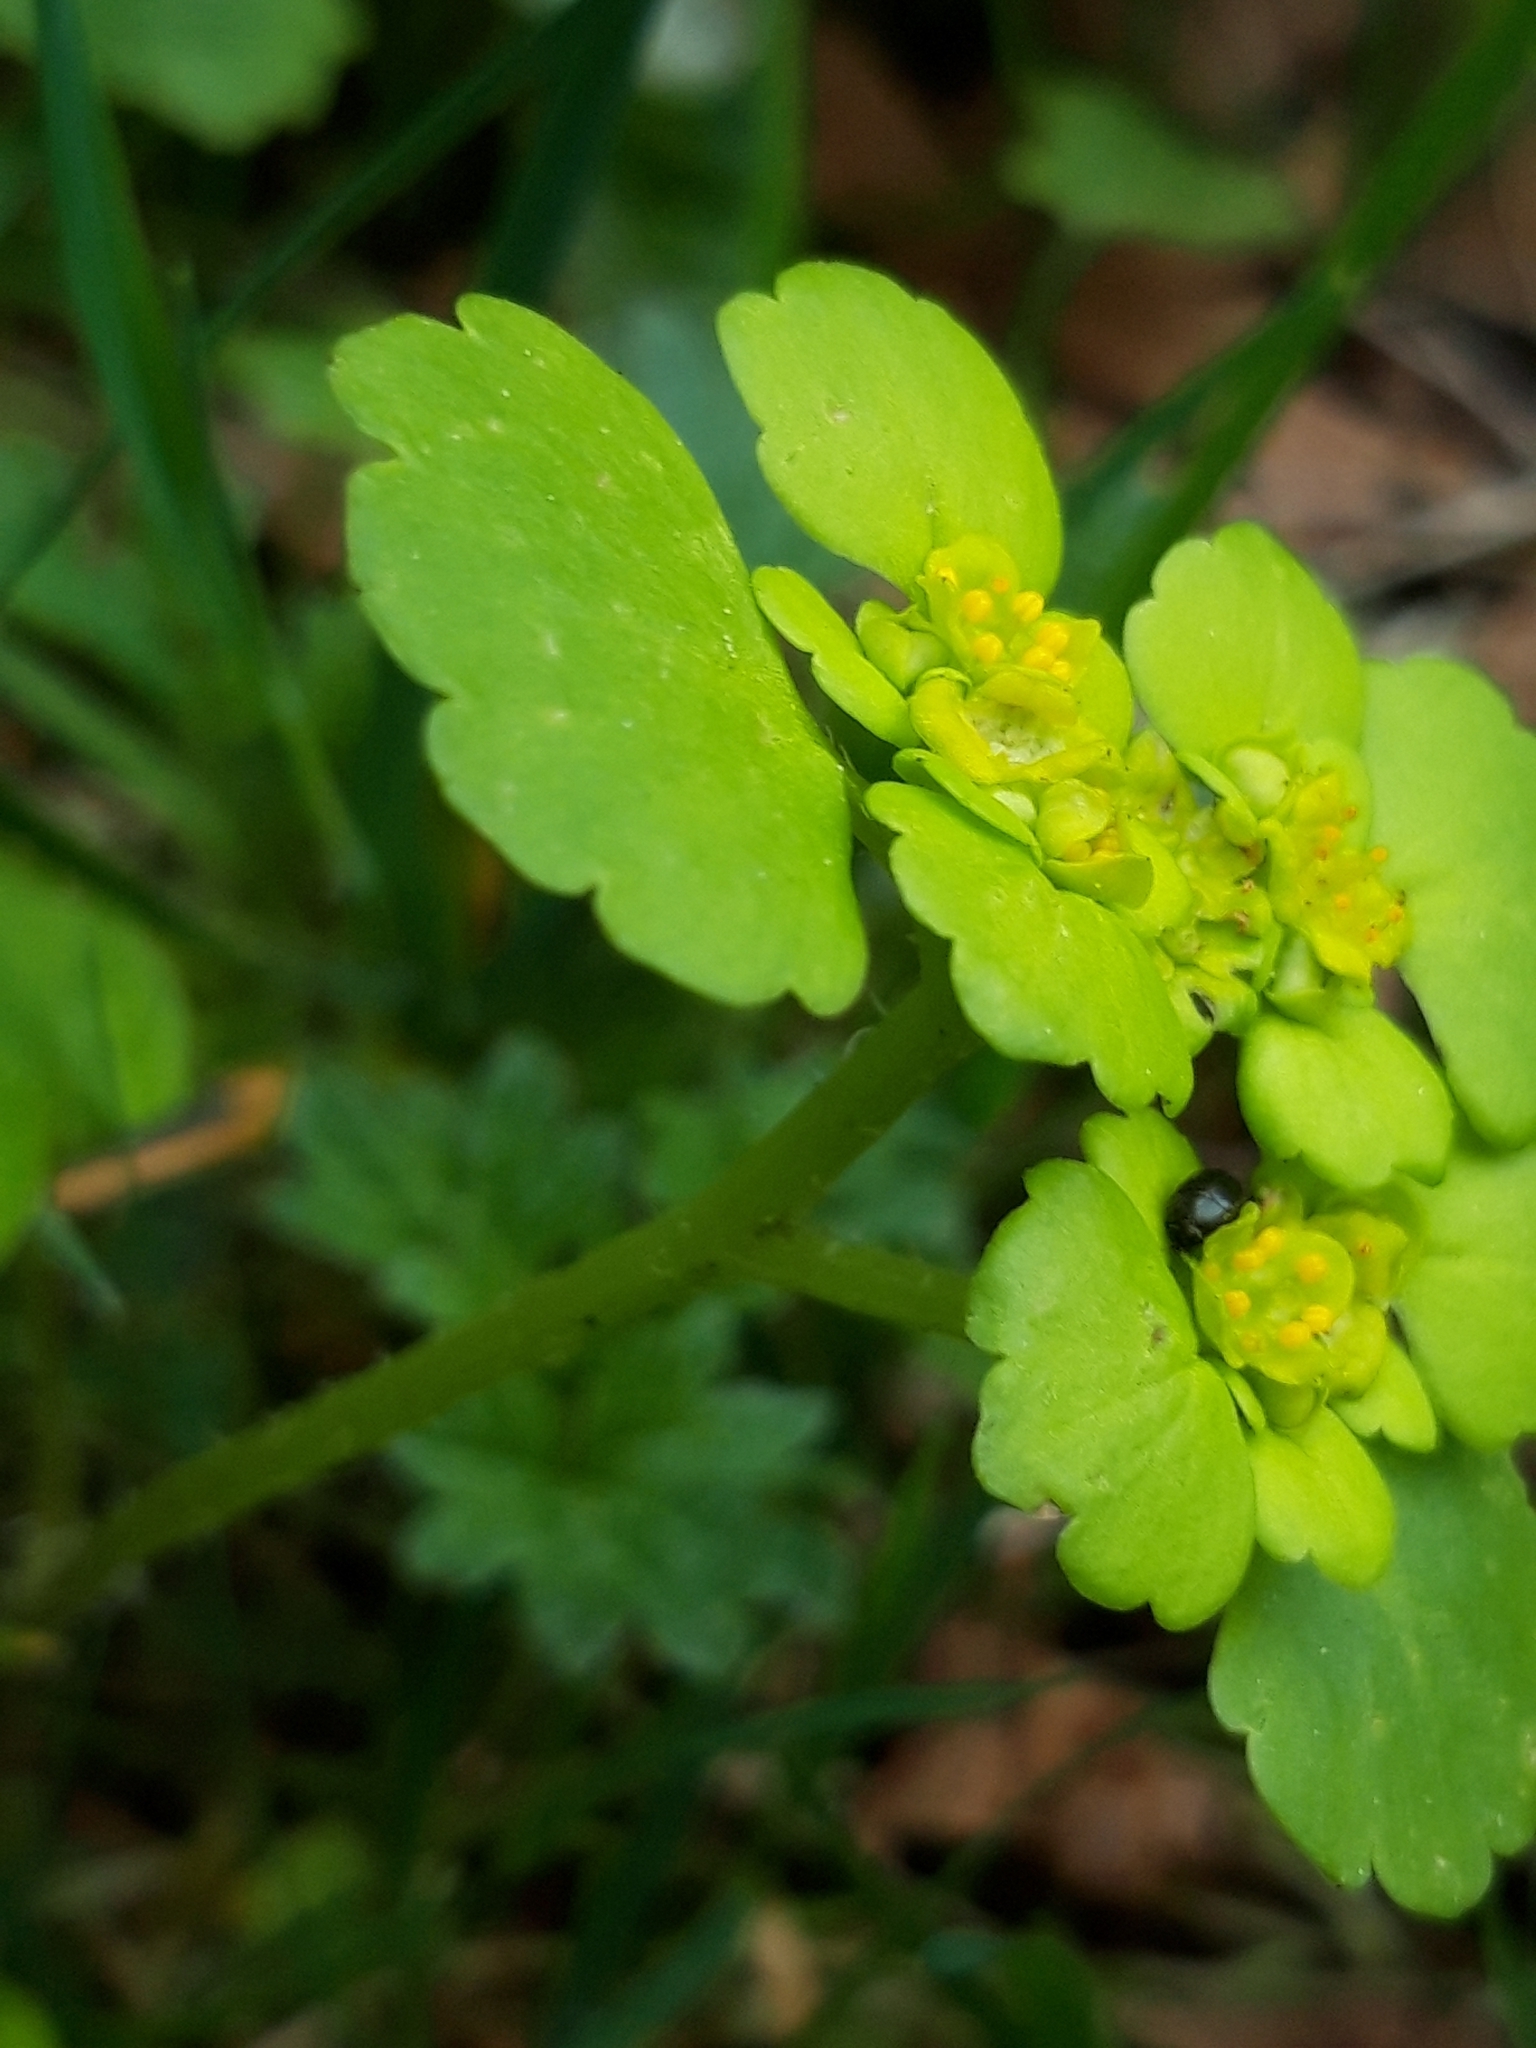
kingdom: Plantae
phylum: Tracheophyta
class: Magnoliopsida
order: Saxifragales
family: Saxifragaceae
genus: Chrysosplenium
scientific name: Chrysosplenium alternifolium
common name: Alternate-leaved golden-saxifrage
